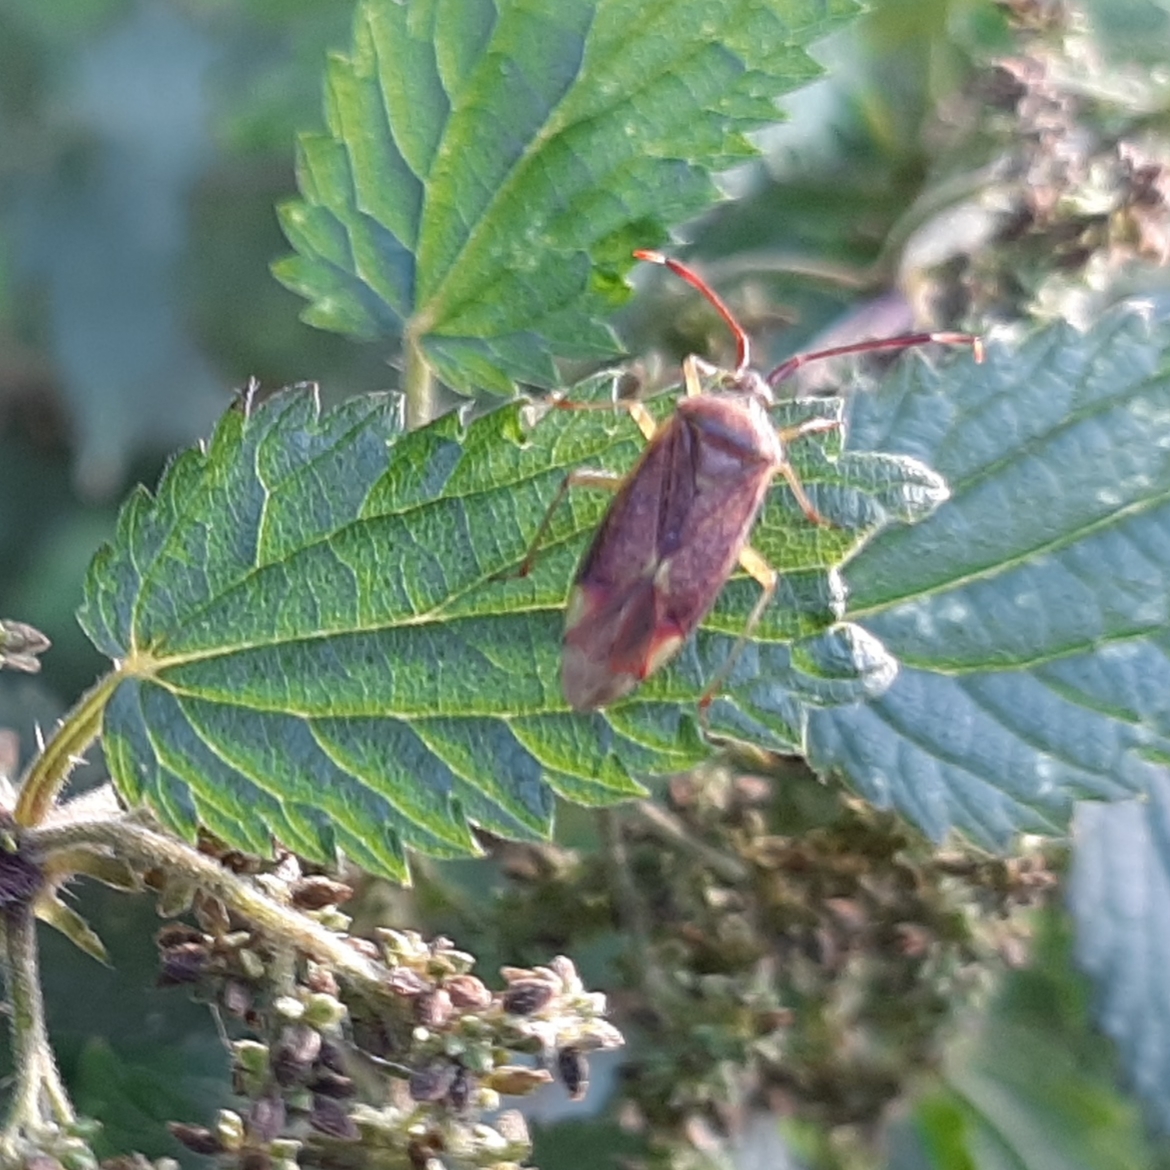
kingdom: Animalia
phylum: Arthropoda
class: Insecta
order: Hemiptera
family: Miridae
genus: Pantilius
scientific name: Pantilius tunicatus
